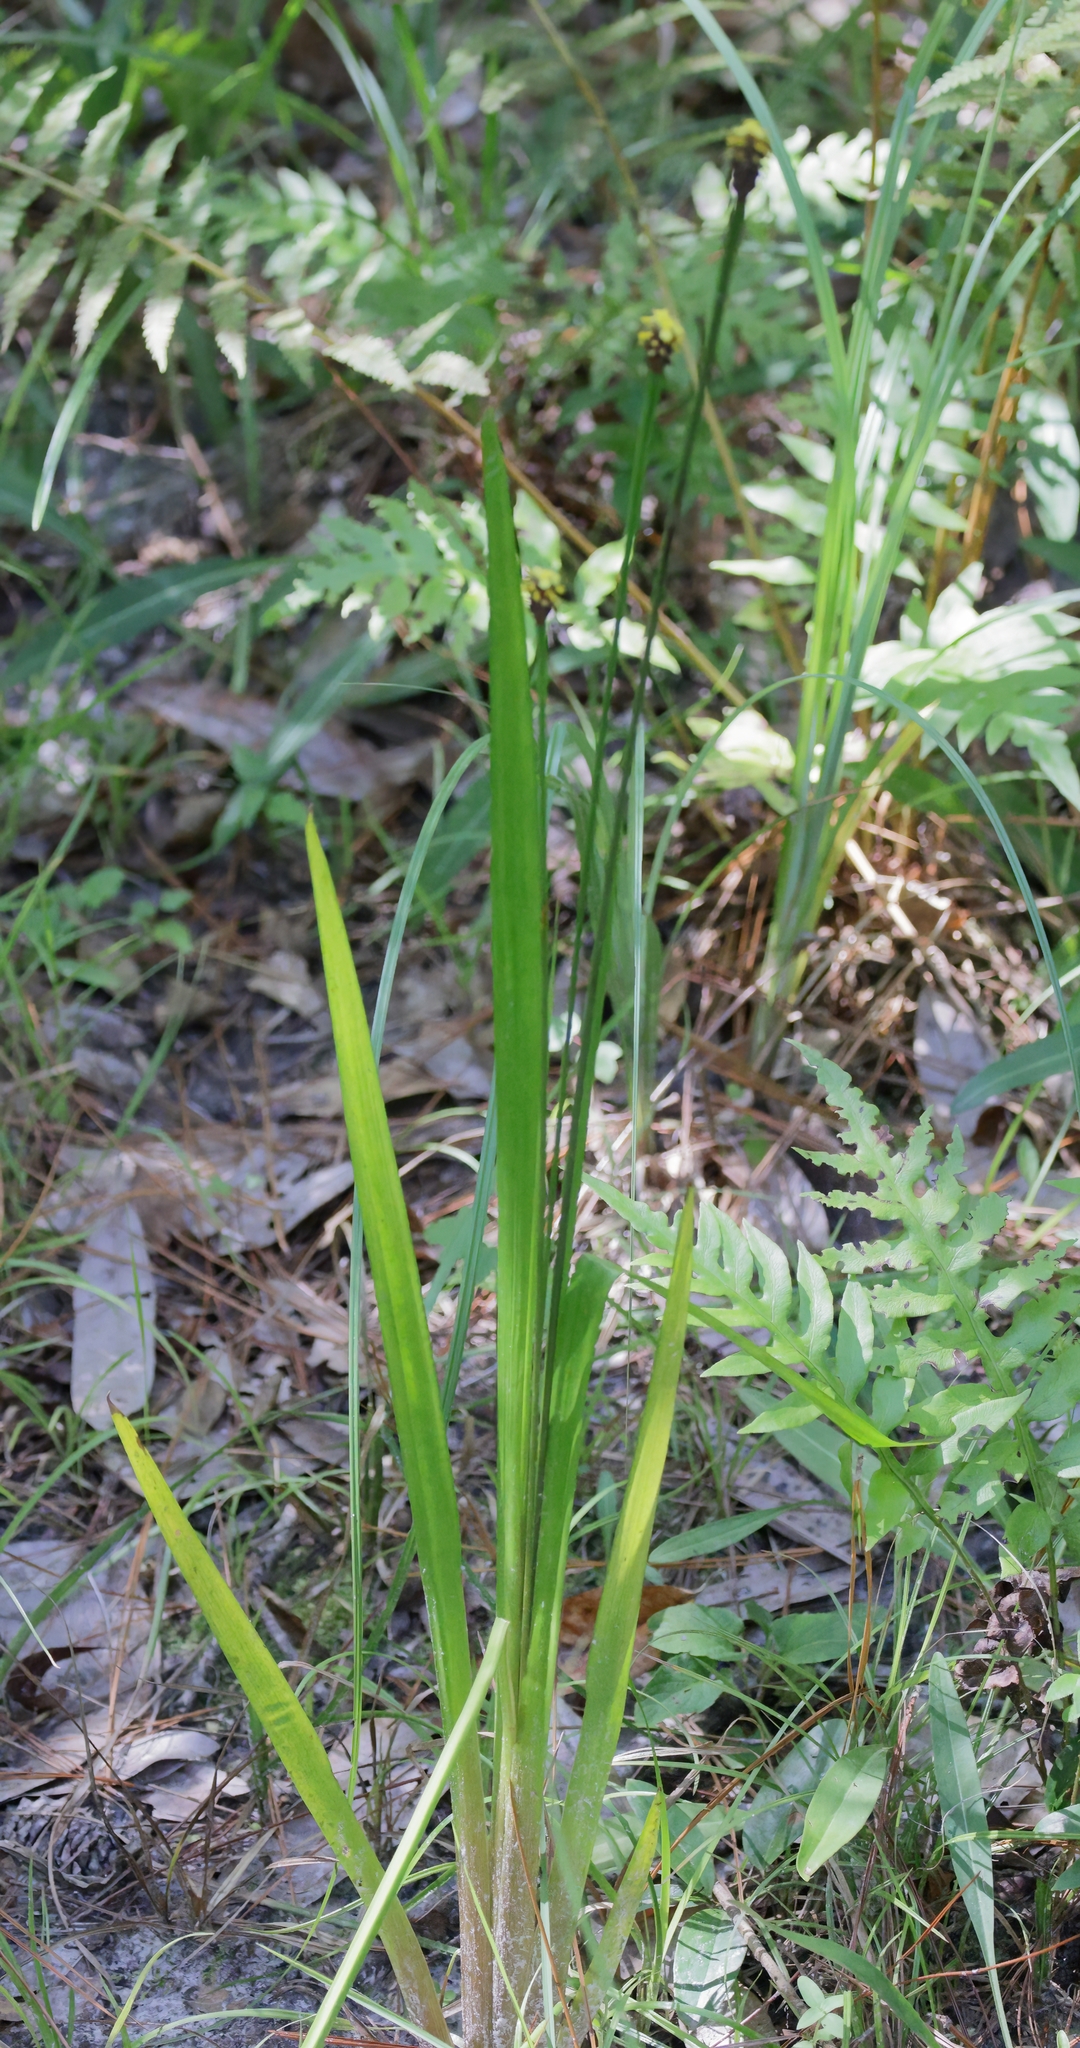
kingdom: Plantae
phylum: Tracheophyta
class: Liliopsida
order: Poales
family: Xyridaceae
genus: Xyris
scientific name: Xyris laxifolia
